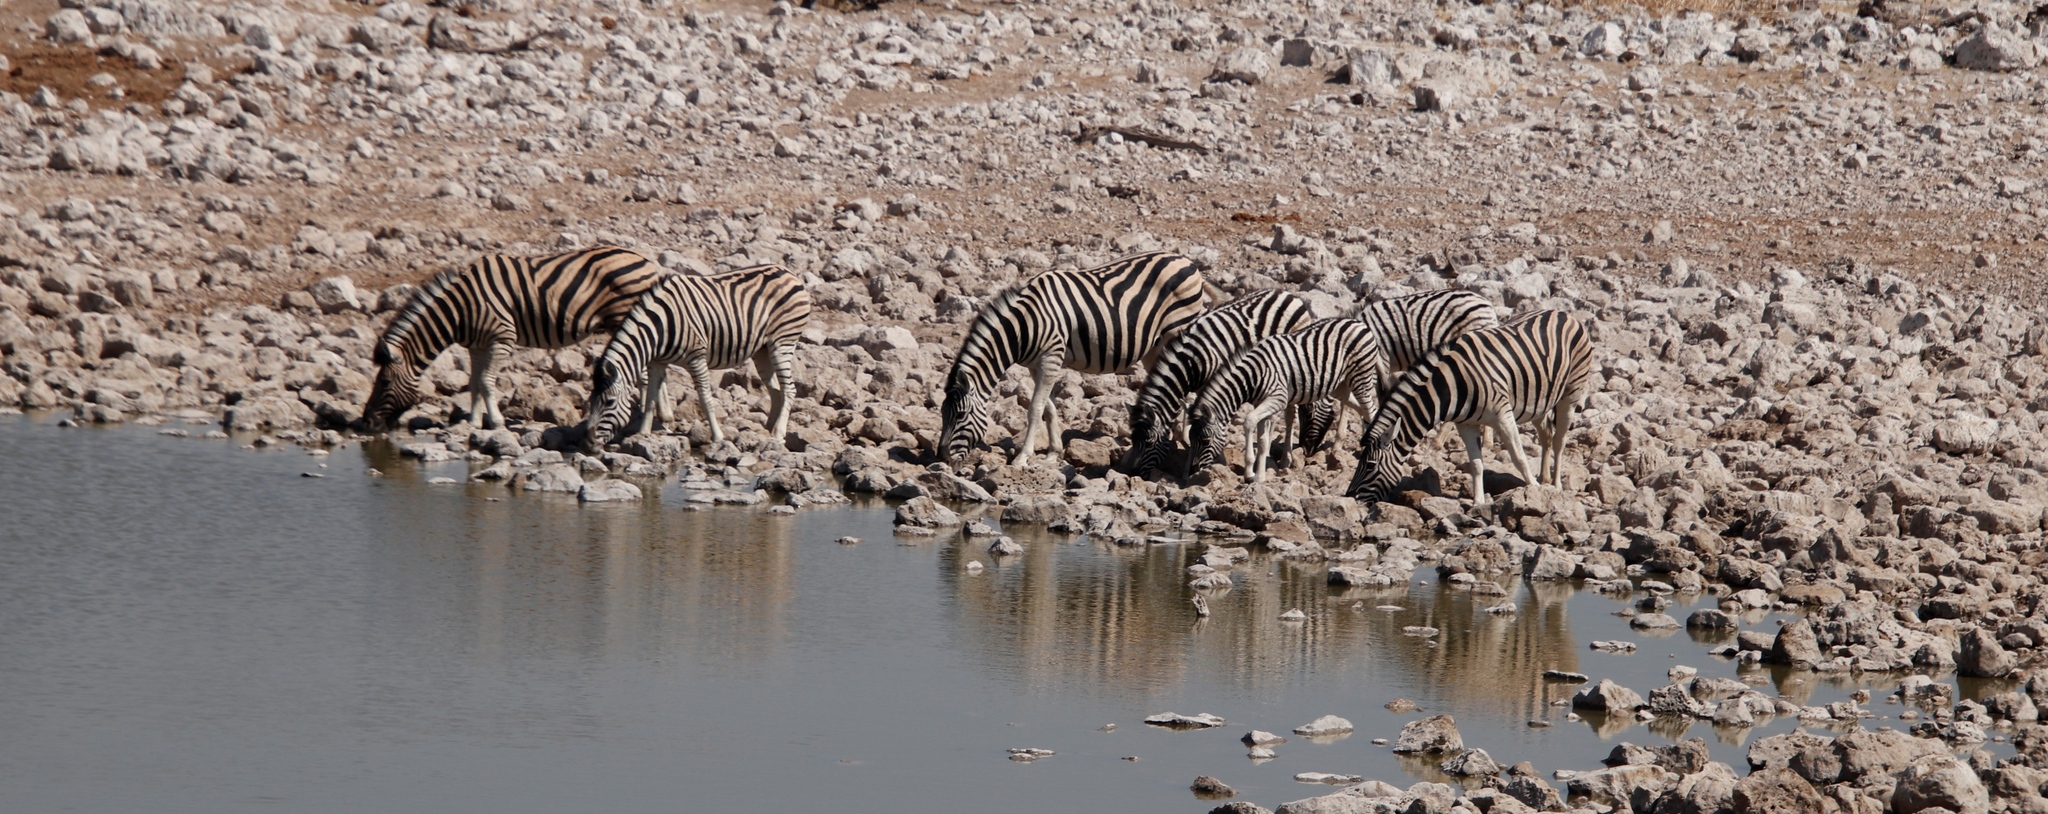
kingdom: Animalia
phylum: Chordata
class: Mammalia
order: Perissodactyla
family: Equidae
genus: Equus
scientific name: Equus quagga
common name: Plains zebra
